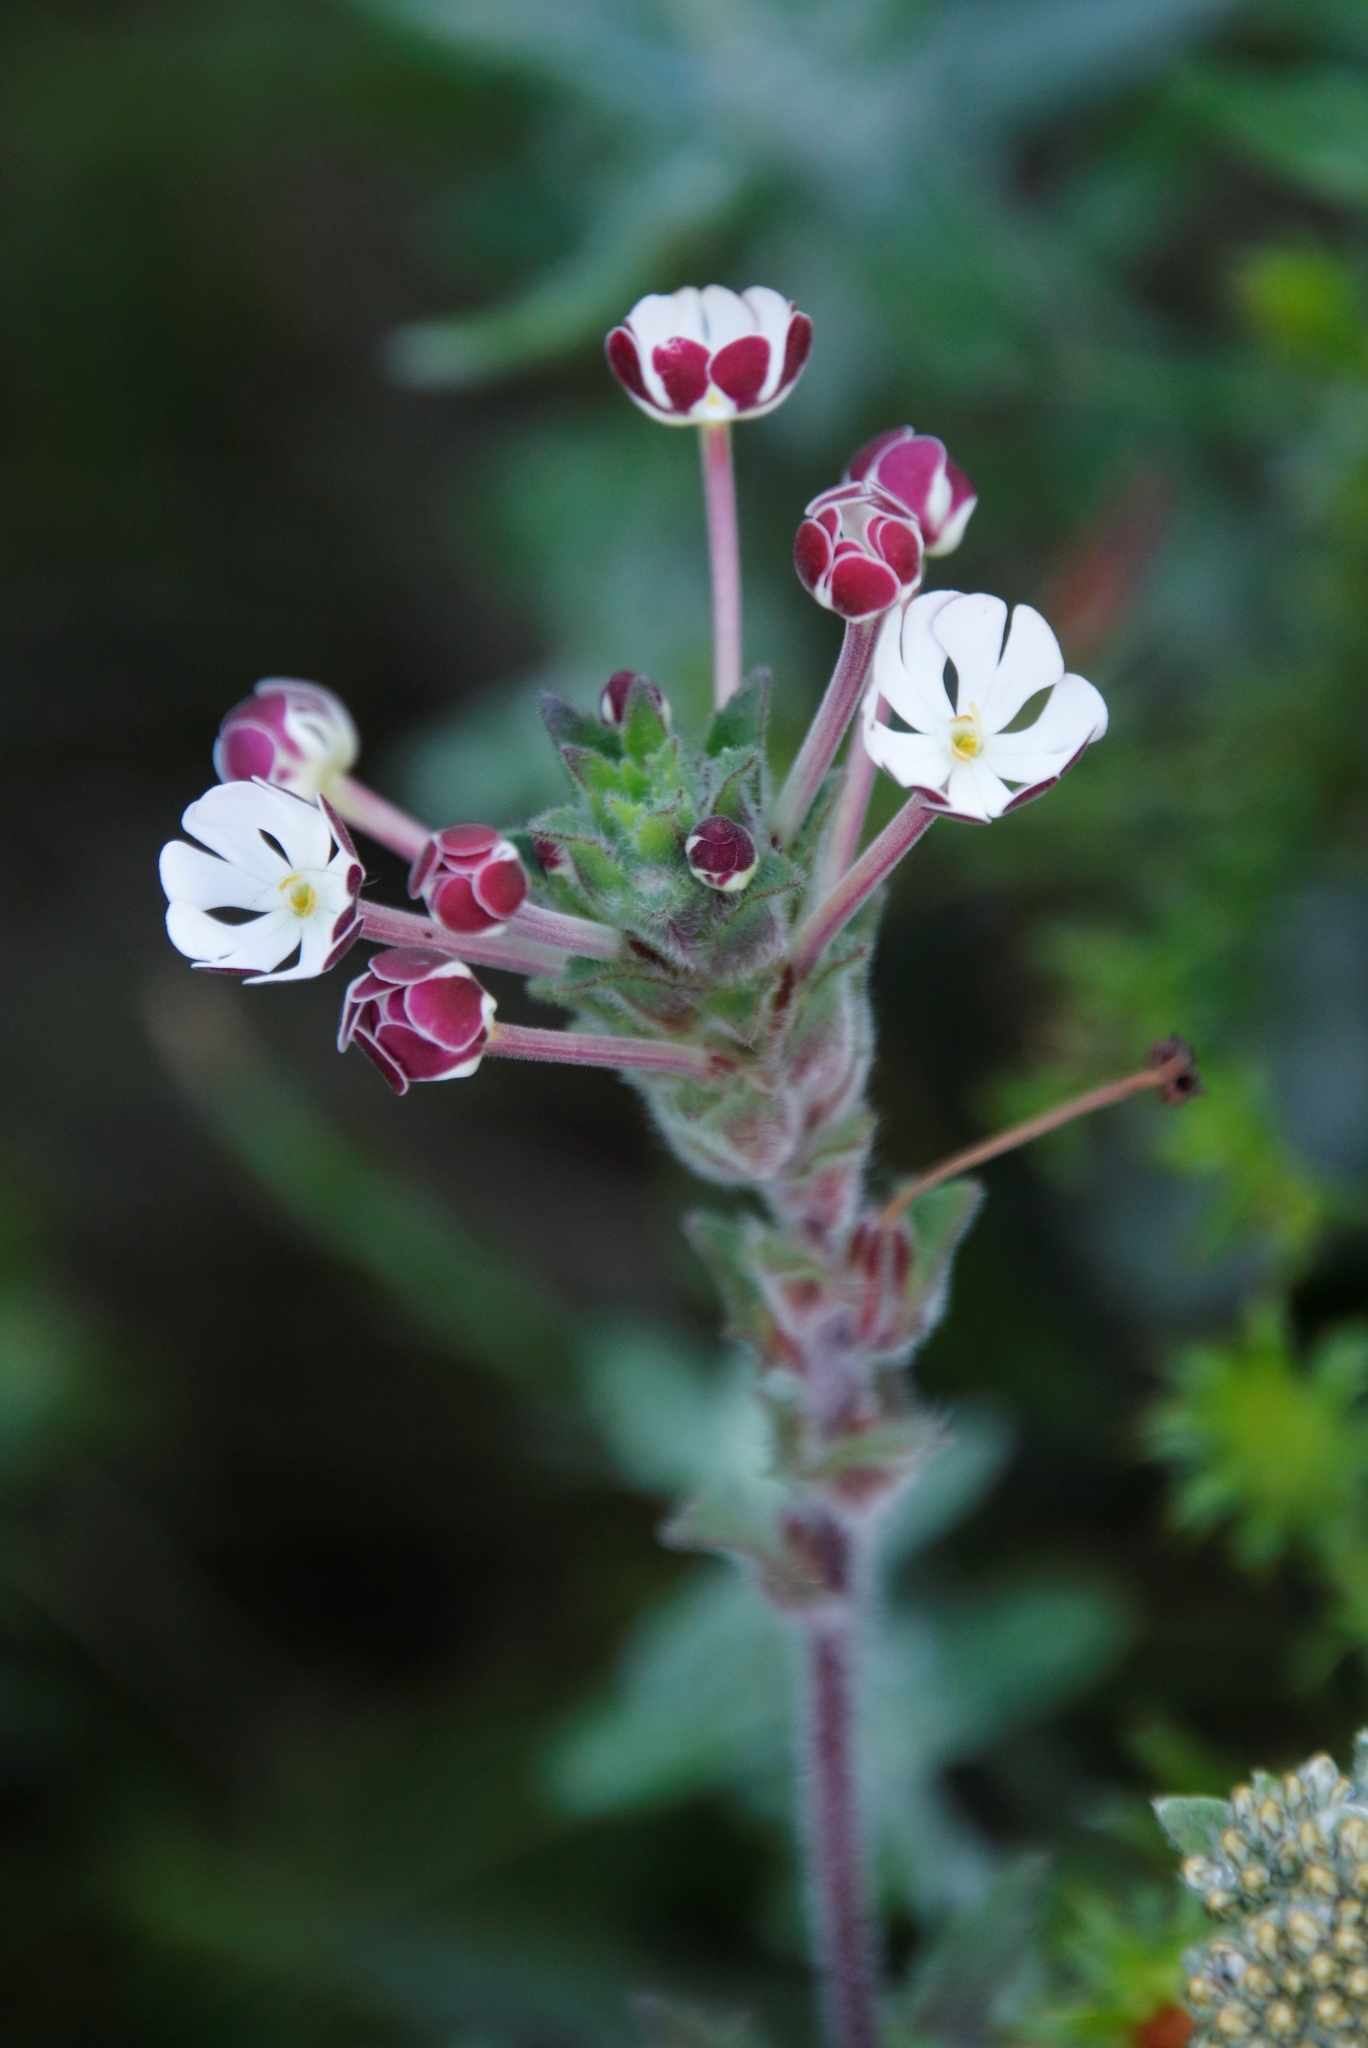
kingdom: Plantae
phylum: Tracheophyta
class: Magnoliopsida
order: Lamiales
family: Scrophulariaceae
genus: Zaluzianskya
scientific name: Zaluzianskya capensis
